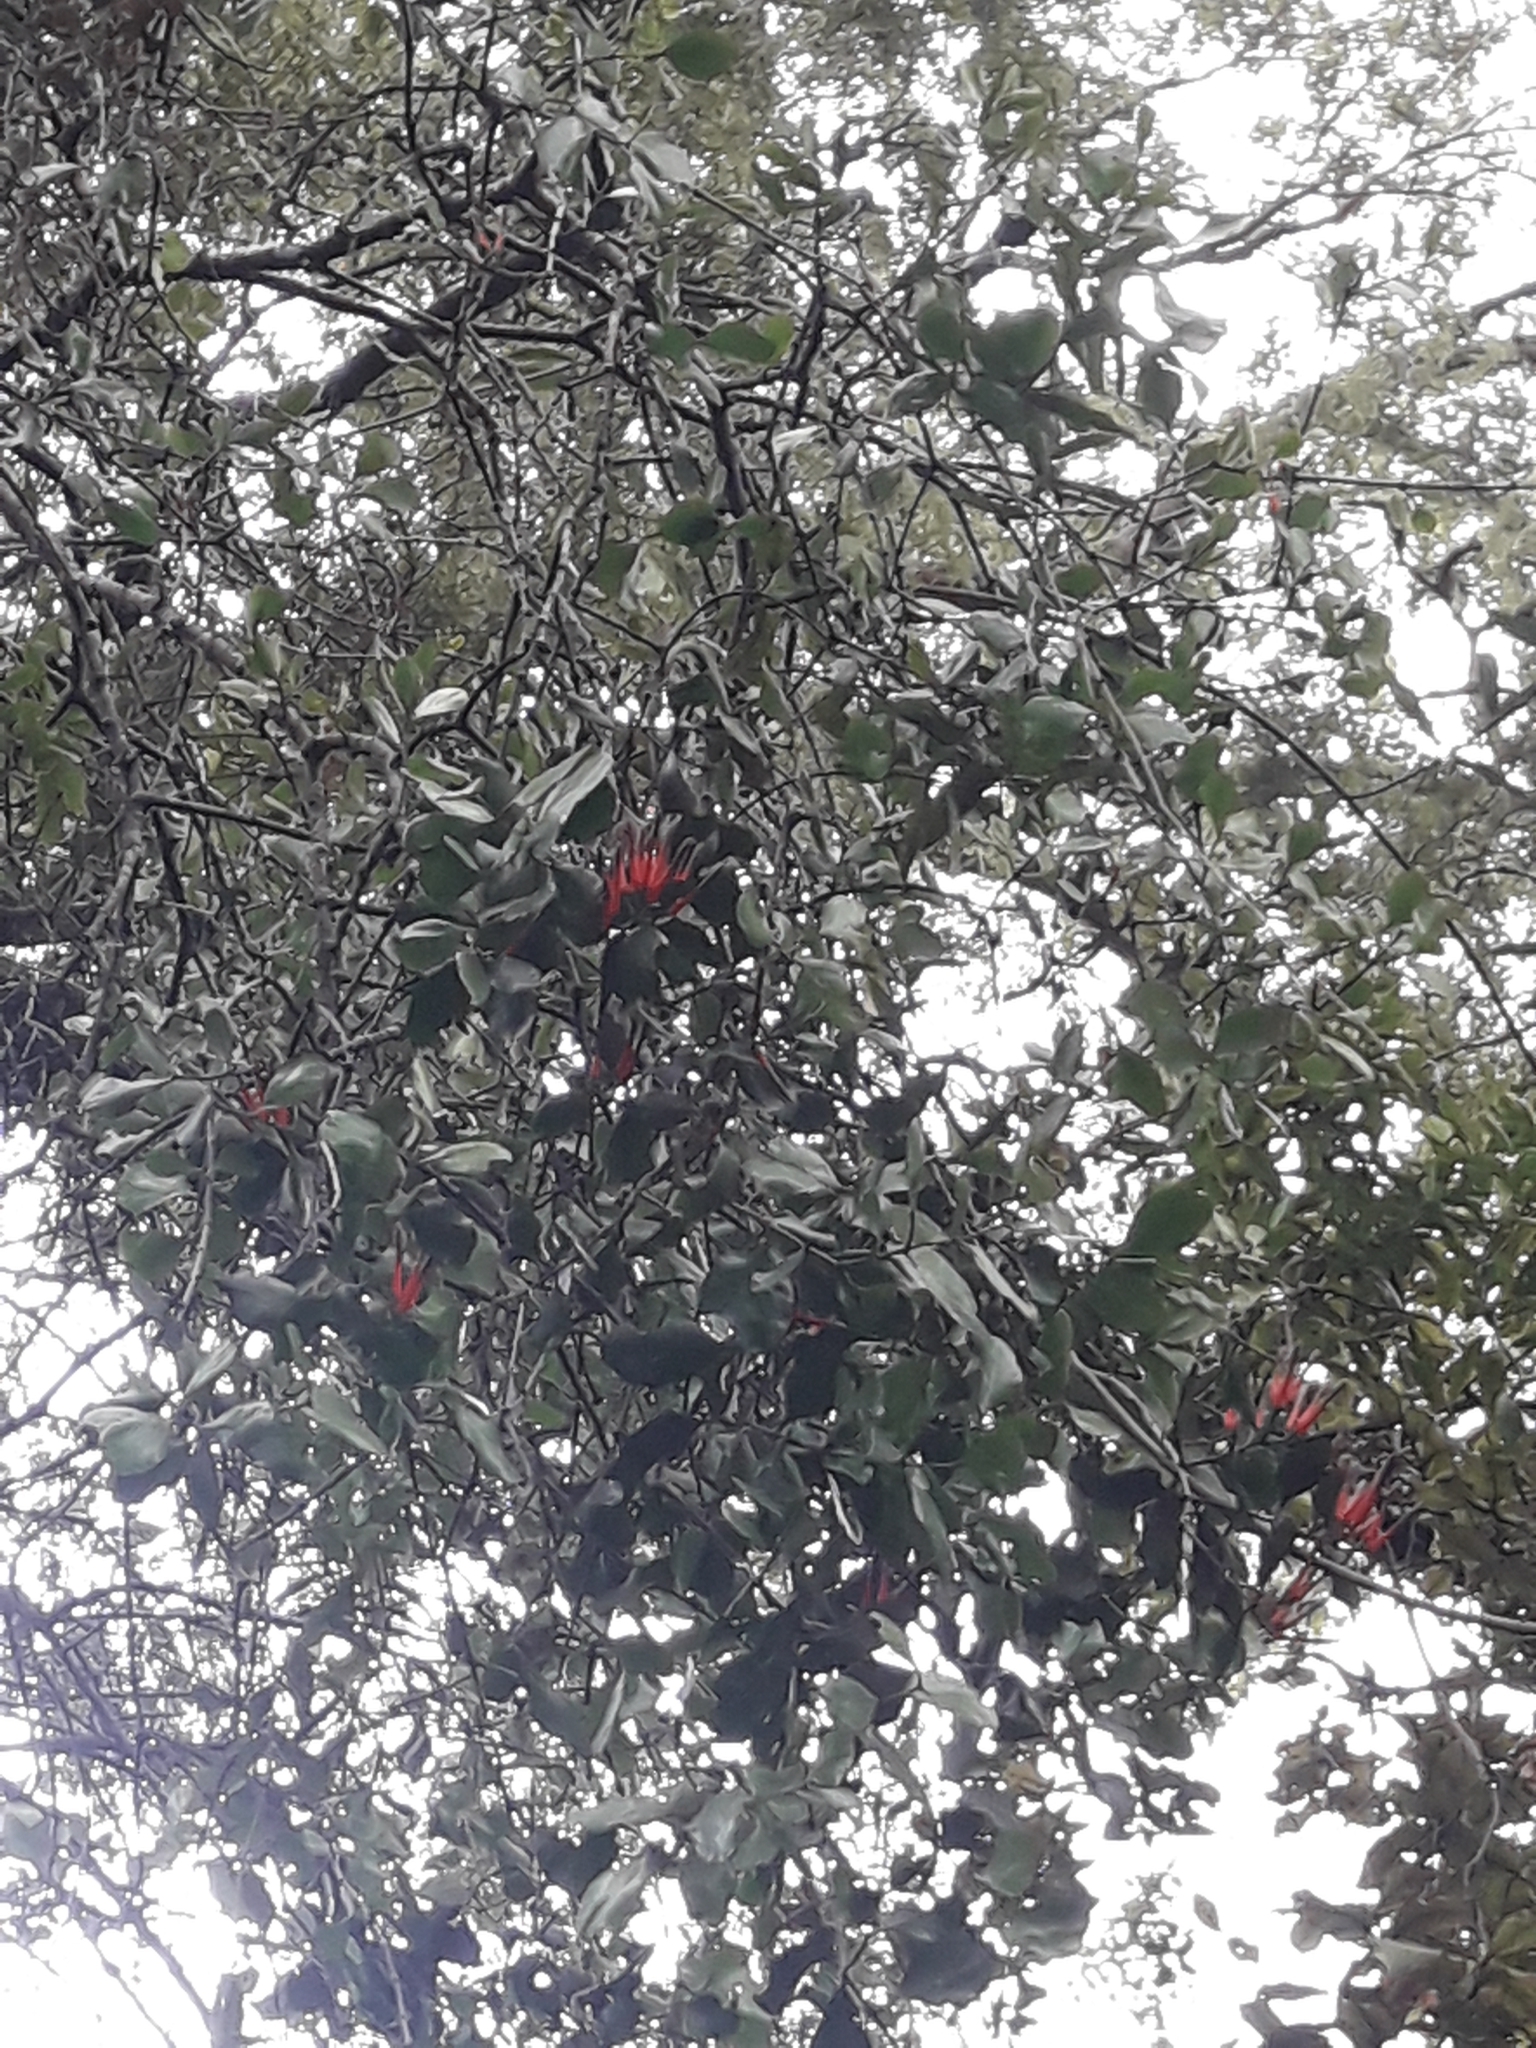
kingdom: Plantae
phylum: Tracheophyta
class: Magnoliopsida
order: Santalales
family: Loranthaceae
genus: Peraxilla
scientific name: Peraxilla colensoi
